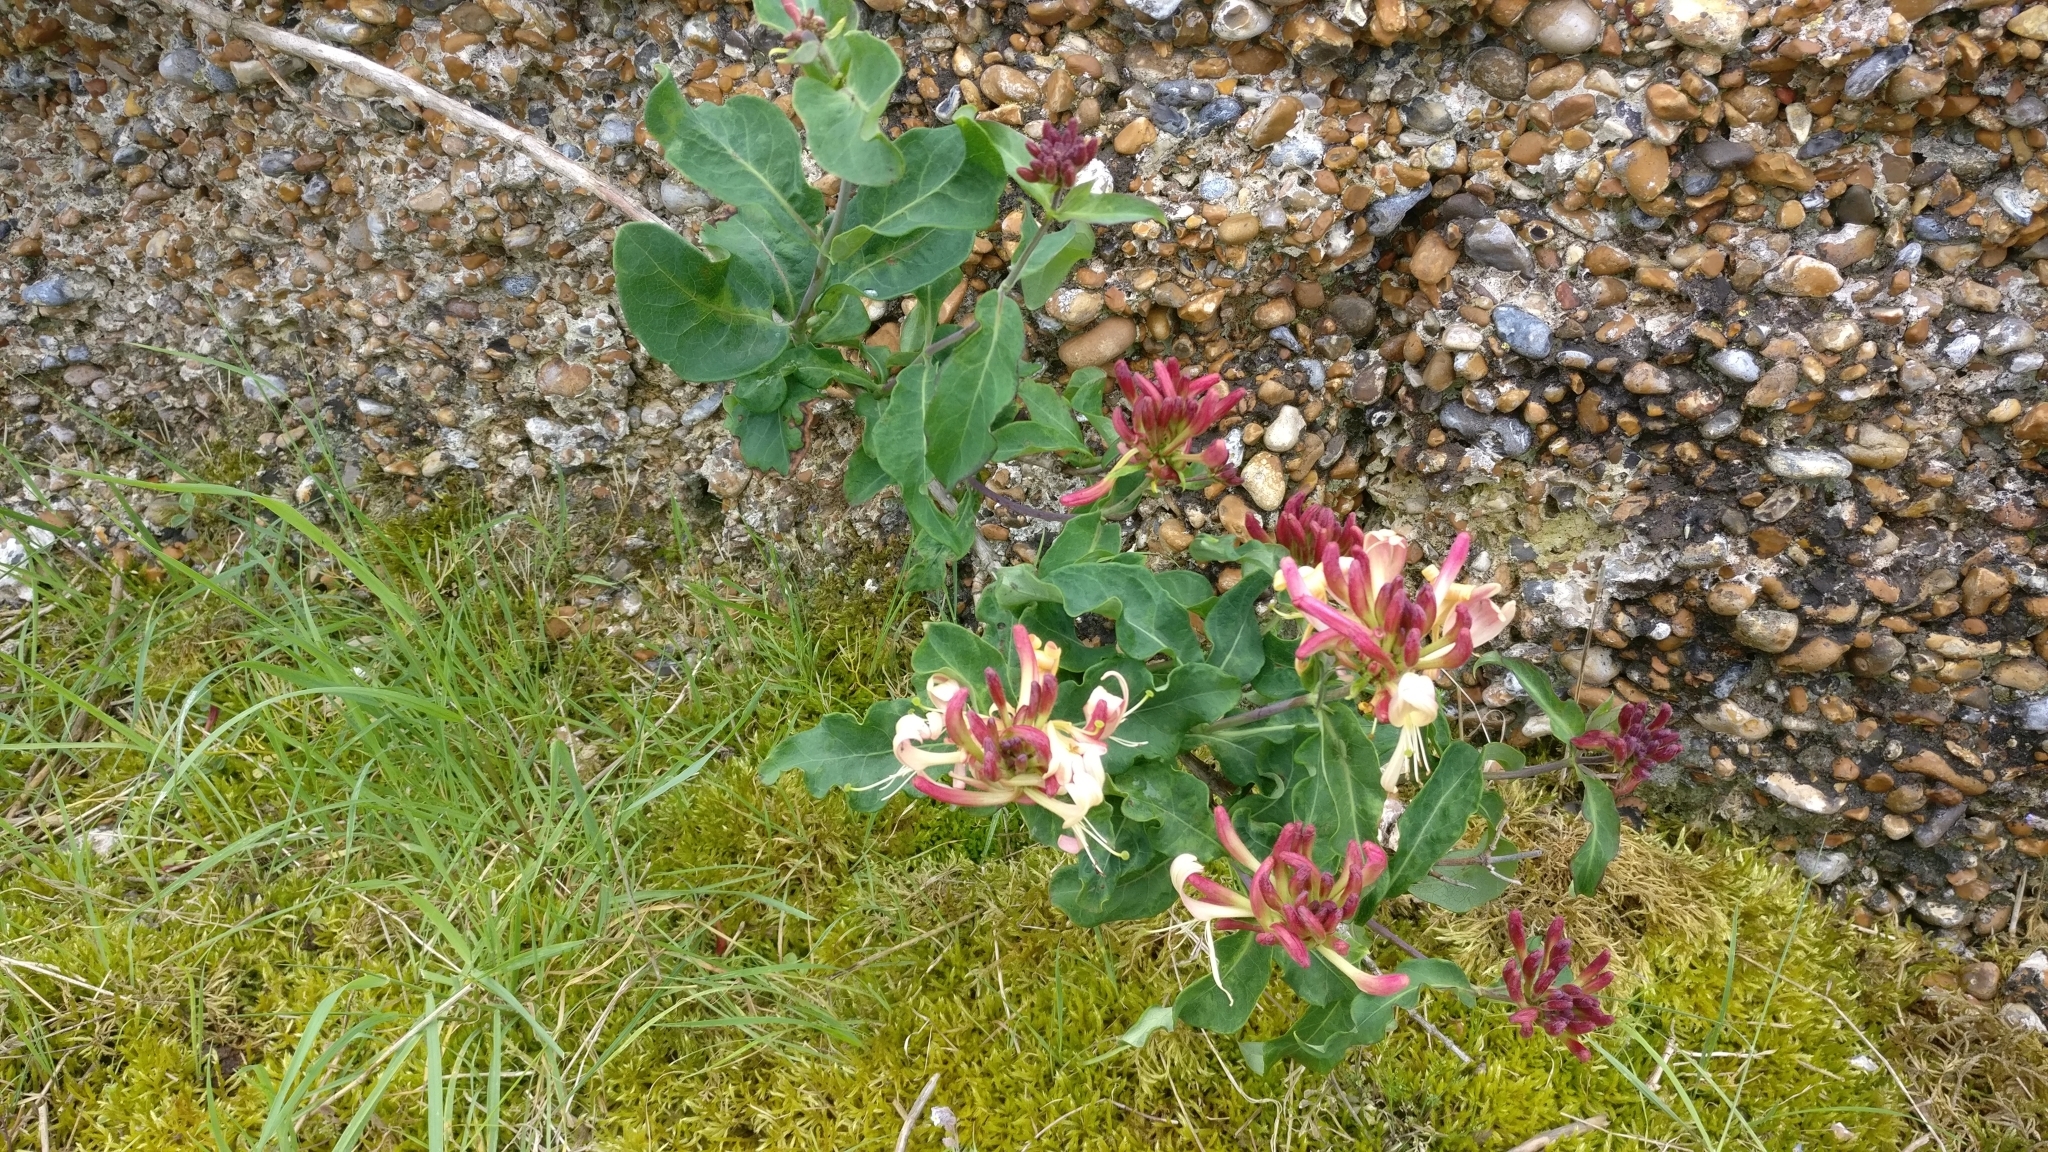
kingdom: Plantae
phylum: Tracheophyta
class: Magnoliopsida
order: Dipsacales
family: Caprifoliaceae
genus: Lonicera
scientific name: Lonicera periclymenum
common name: European honeysuckle
